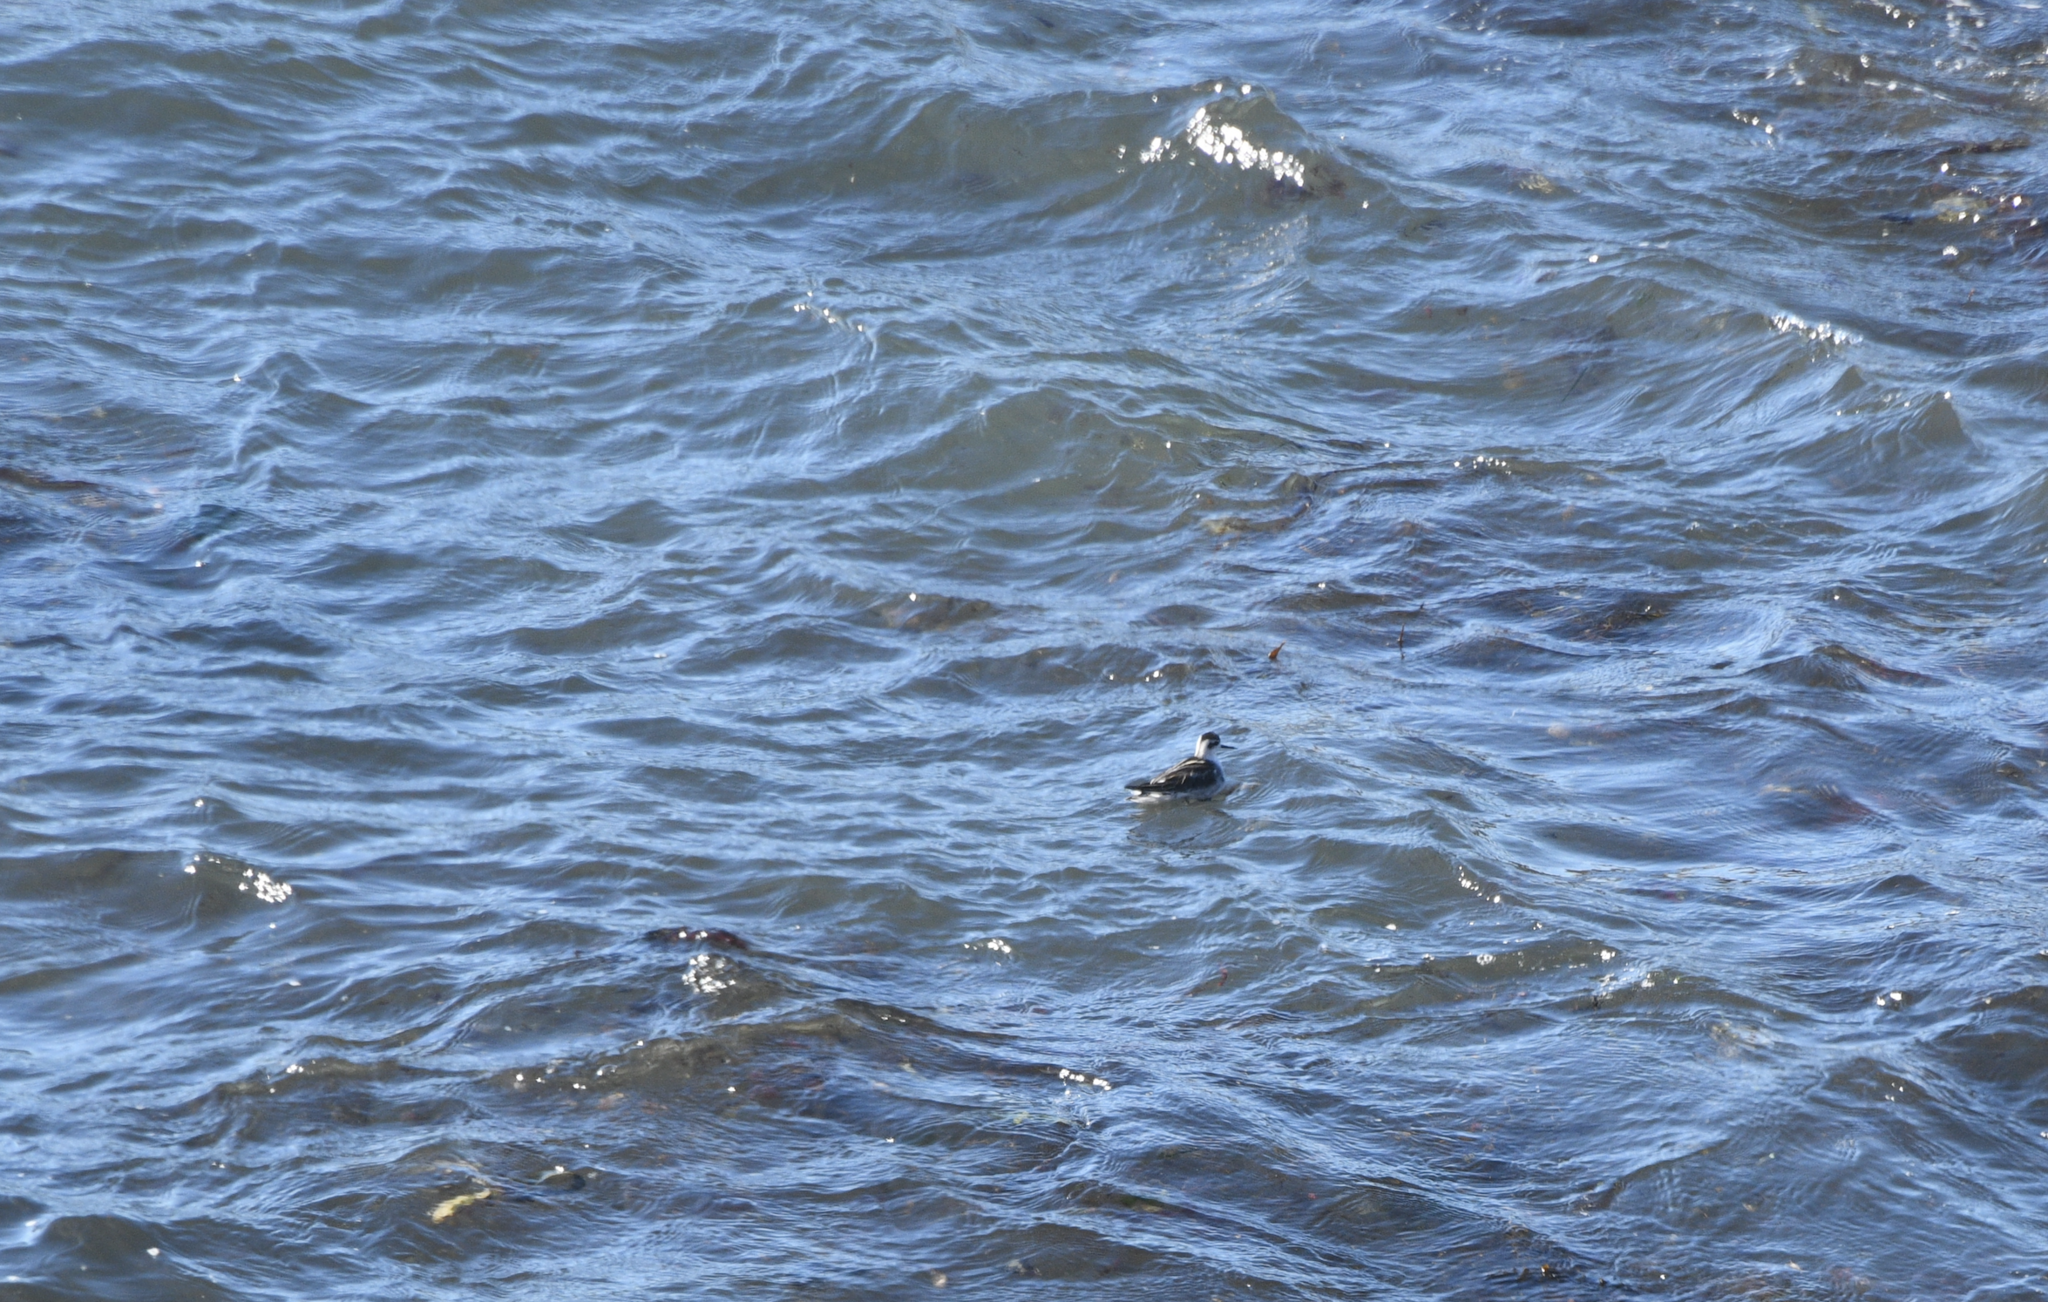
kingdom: Animalia
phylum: Chordata
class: Aves
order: Charadriiformes
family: Scolopacidae
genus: Phalaropus
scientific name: Phalaropus lobatus
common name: Red-necked phalarope
